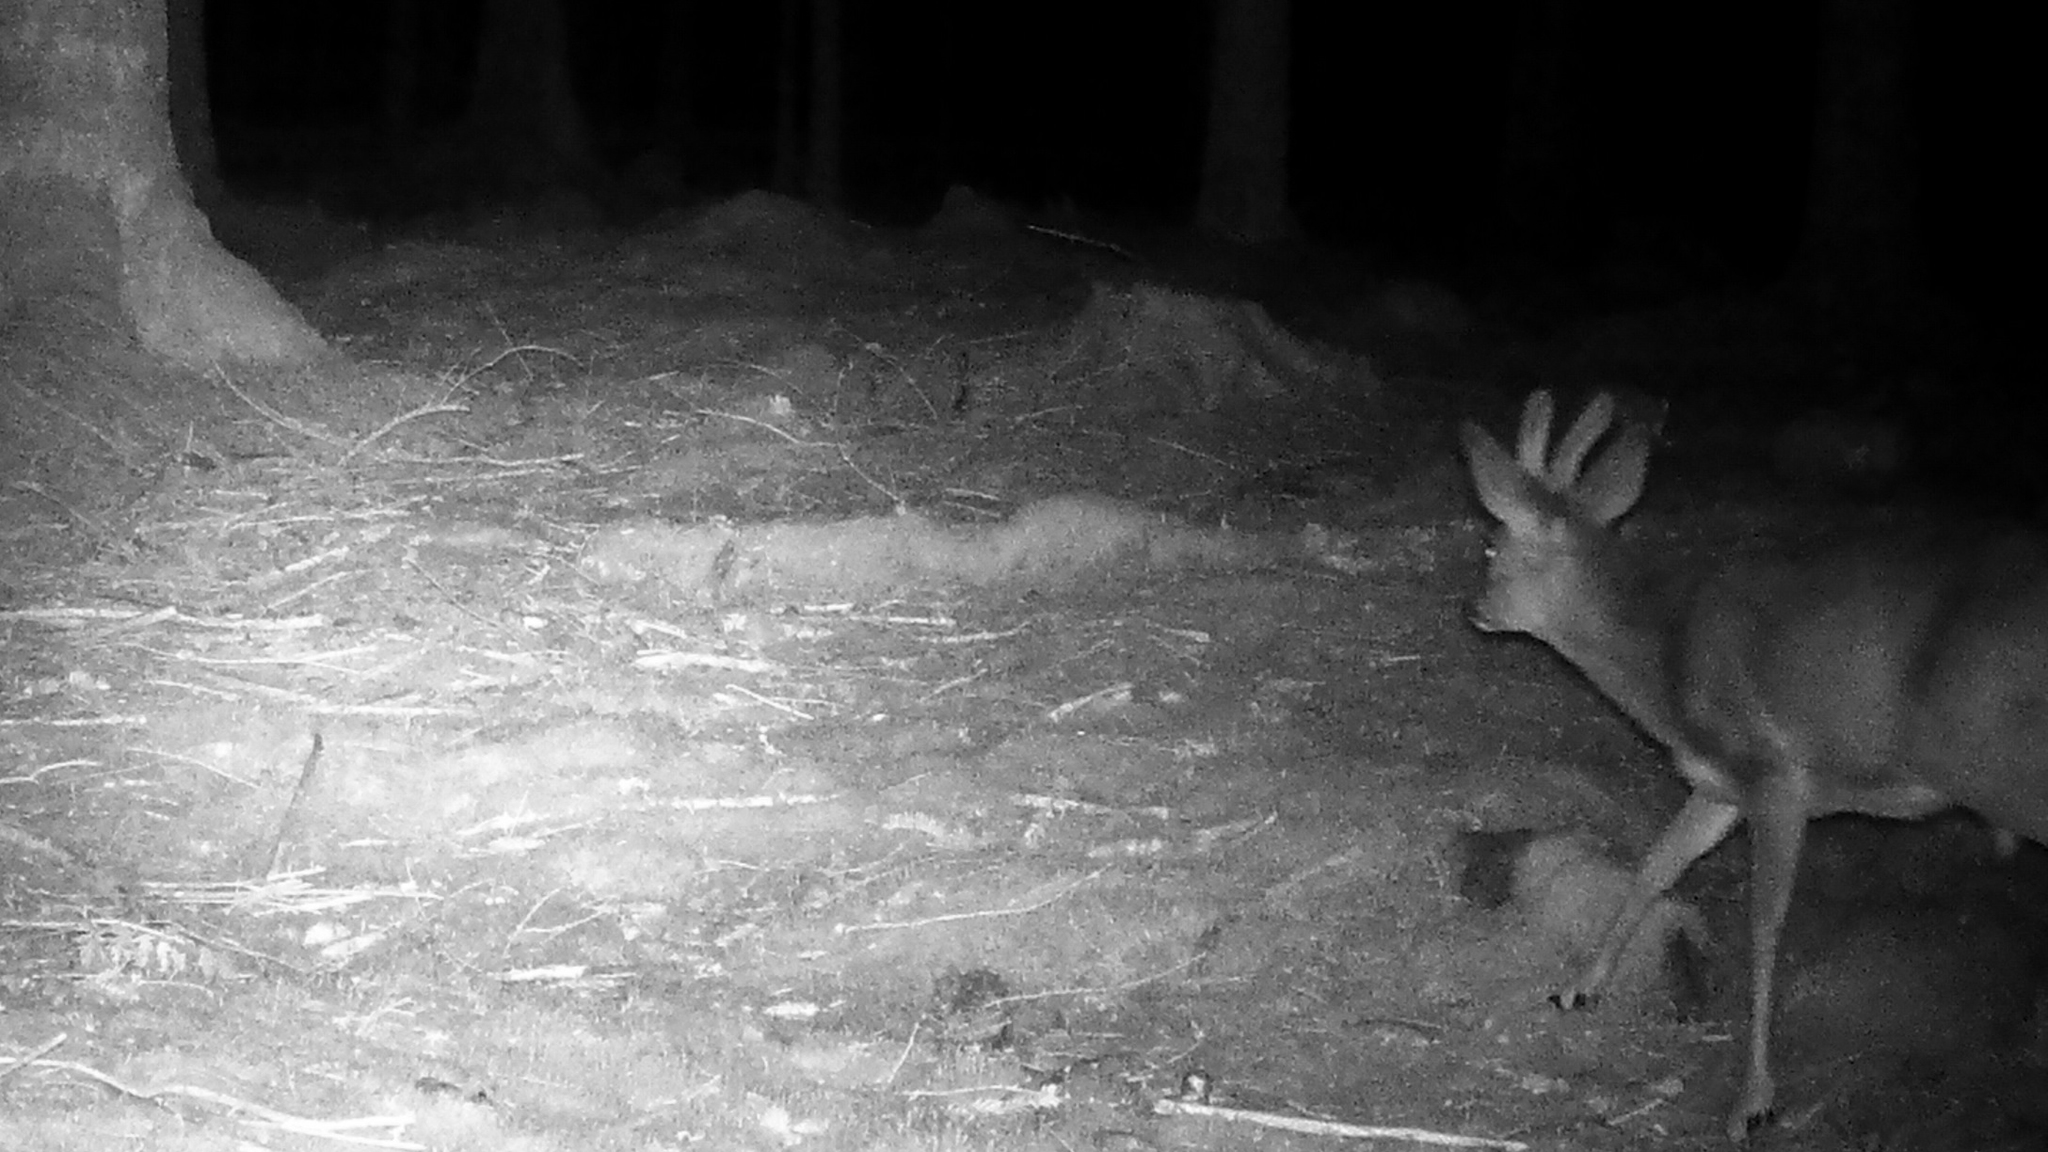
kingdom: Animalia
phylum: Chordata
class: Mammalia
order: Artiodactyla
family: Cervidae
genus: Capreolus
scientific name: Capreolus capreolus
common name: Western roe deer
